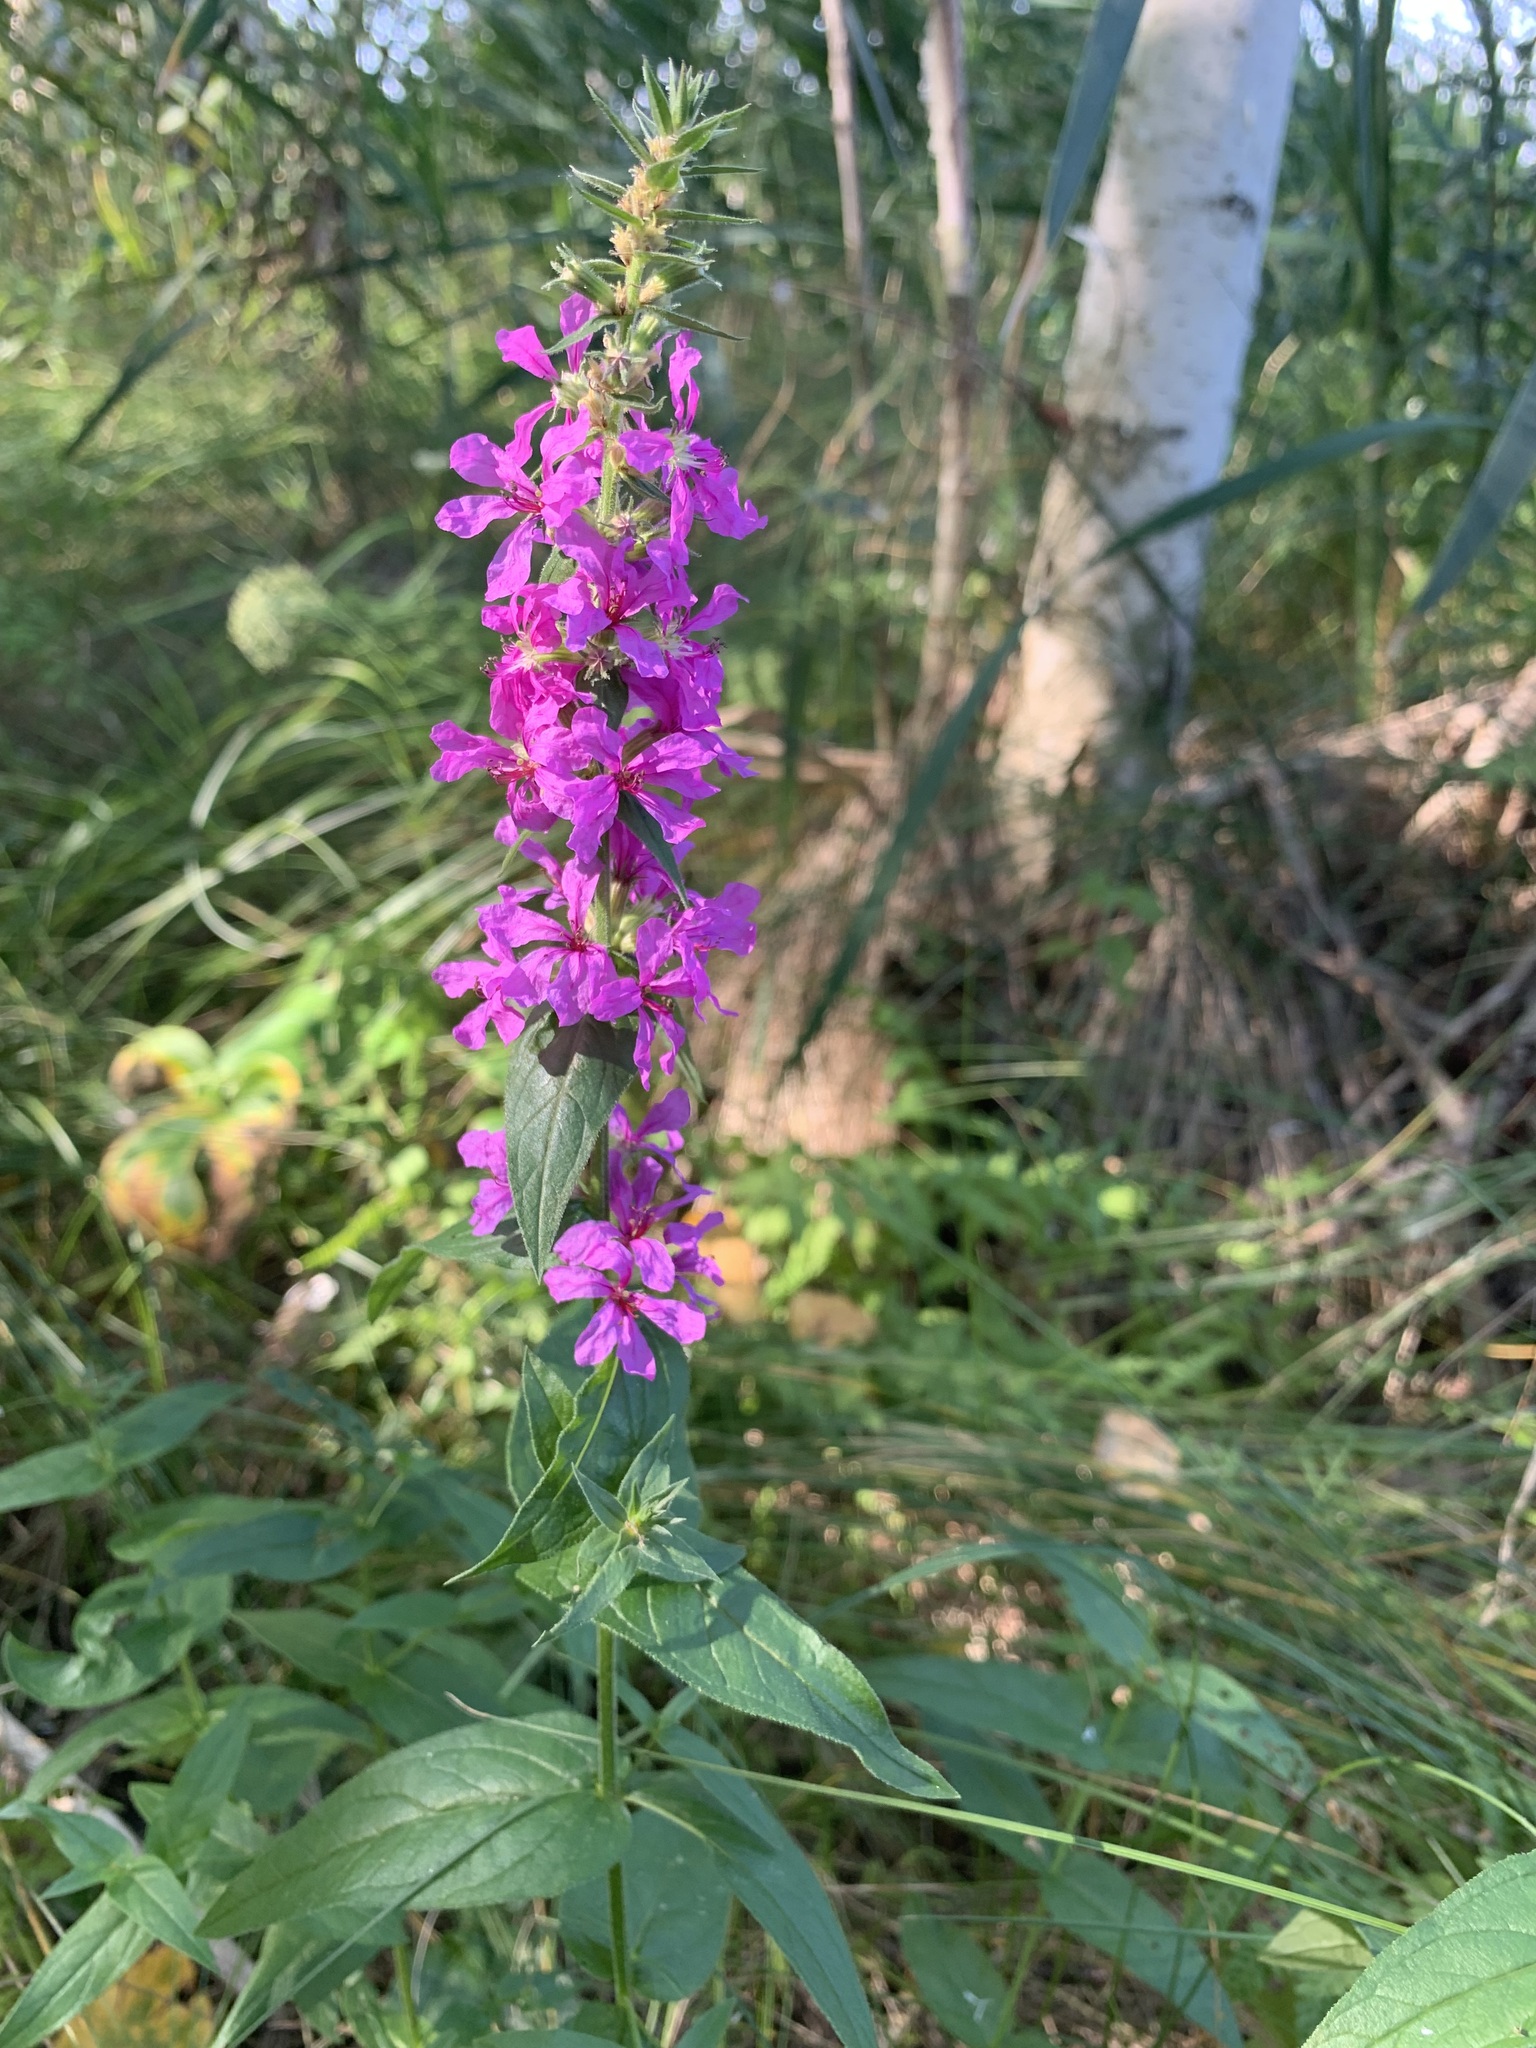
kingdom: Plantae
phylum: Tracheophyta
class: Magnoliopsida
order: Myrtales
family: Lythraceae
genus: Lythrum
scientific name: Lythrum salicaria
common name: Purple loosestrife
